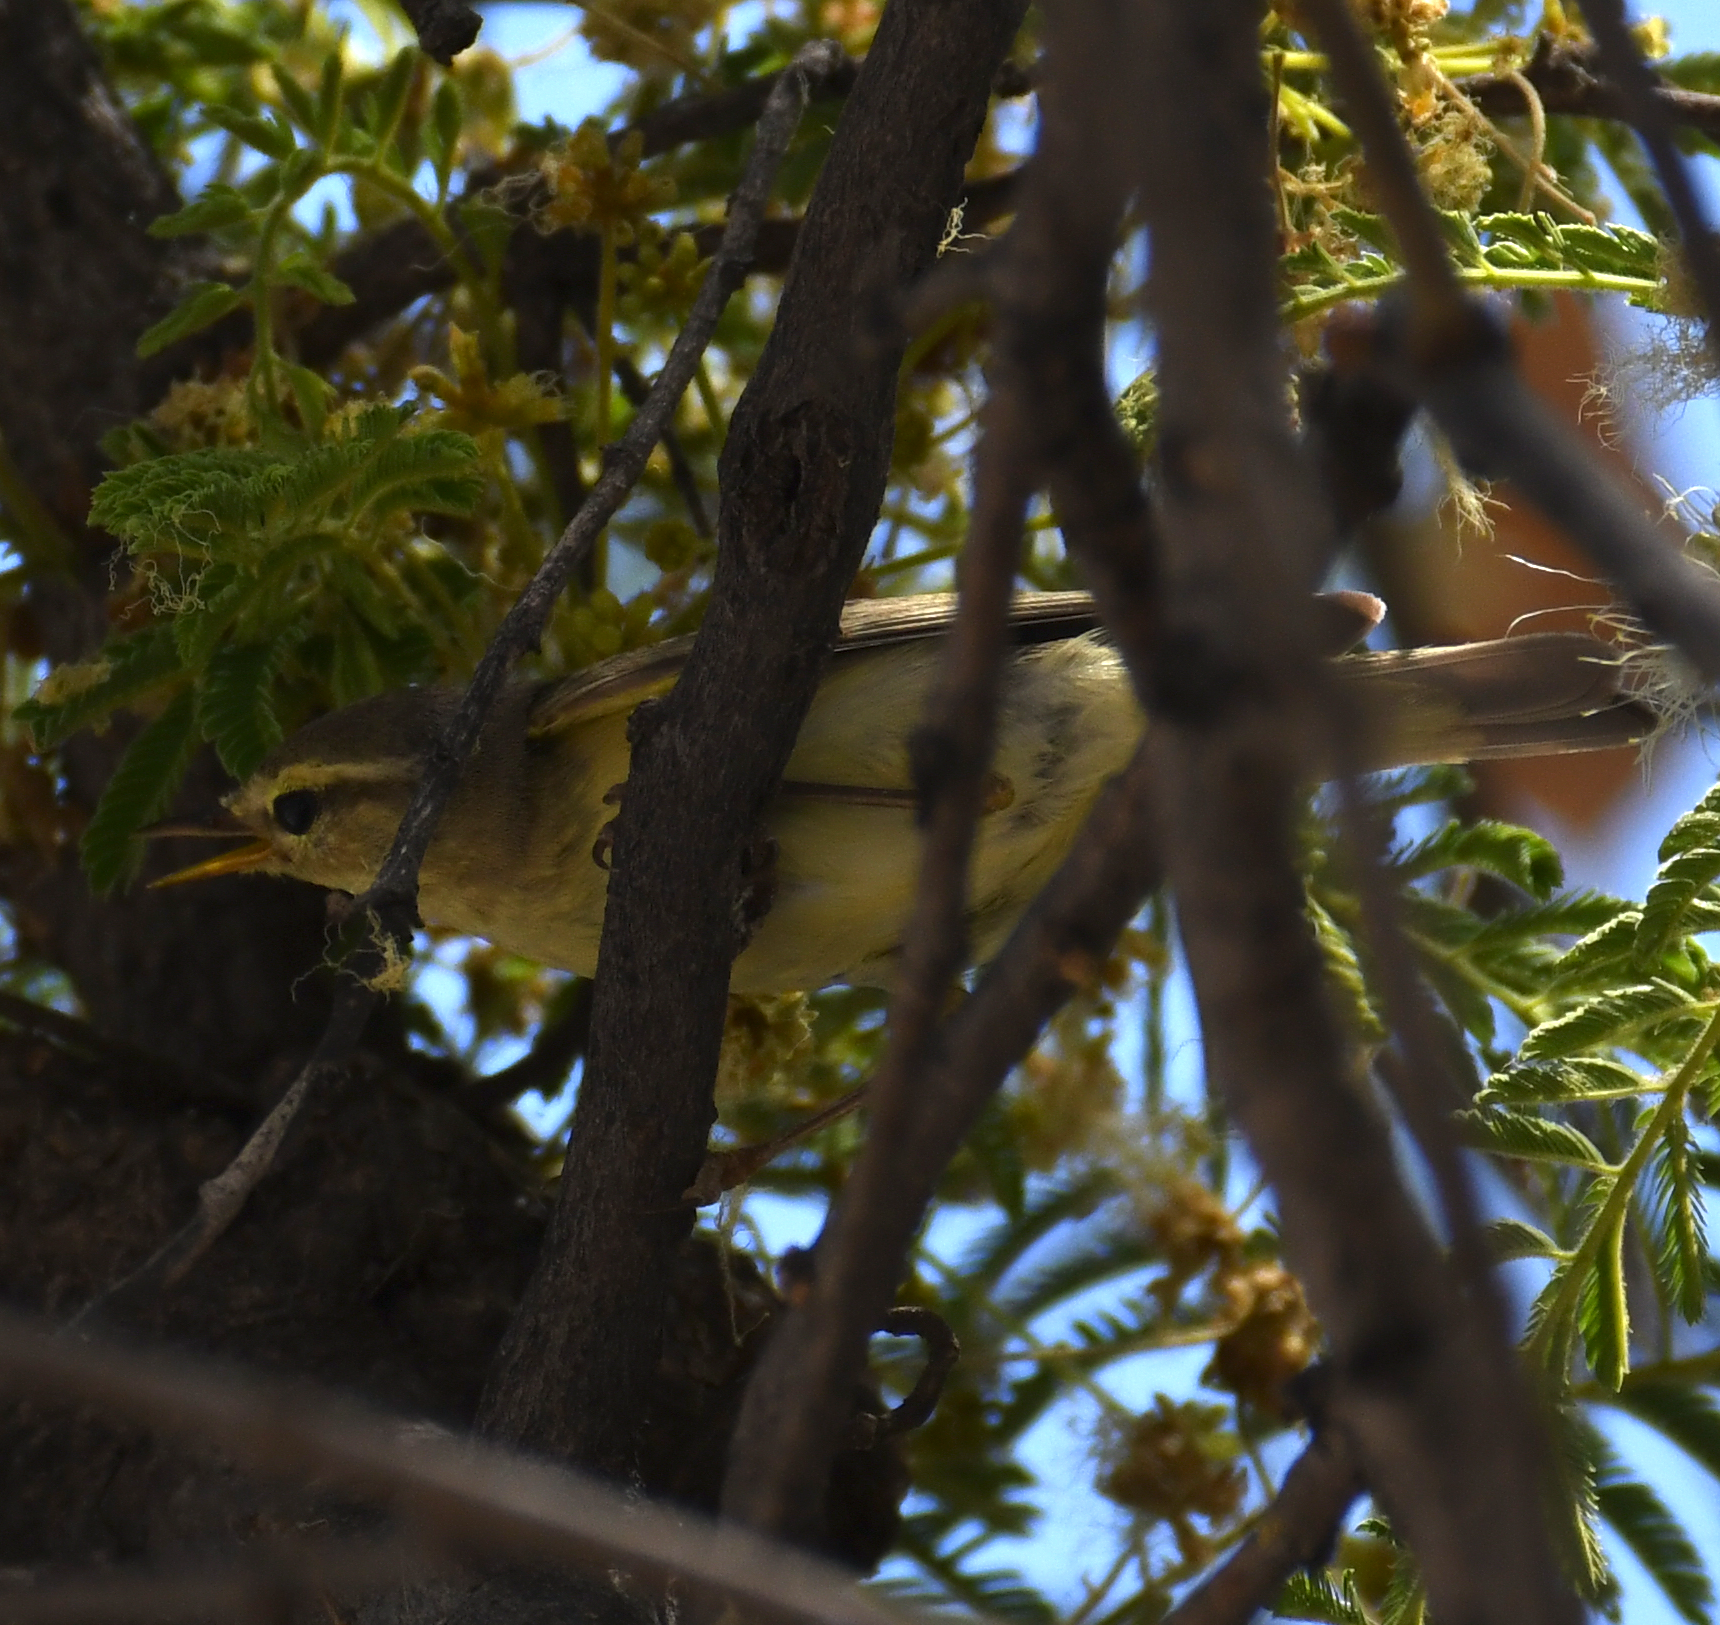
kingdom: Animalia
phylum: Chordata
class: Aves
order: Passeriformes
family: Phylloscopidae
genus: Phylloscopus
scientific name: Phylloscopus trochilus
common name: Willow warbler
